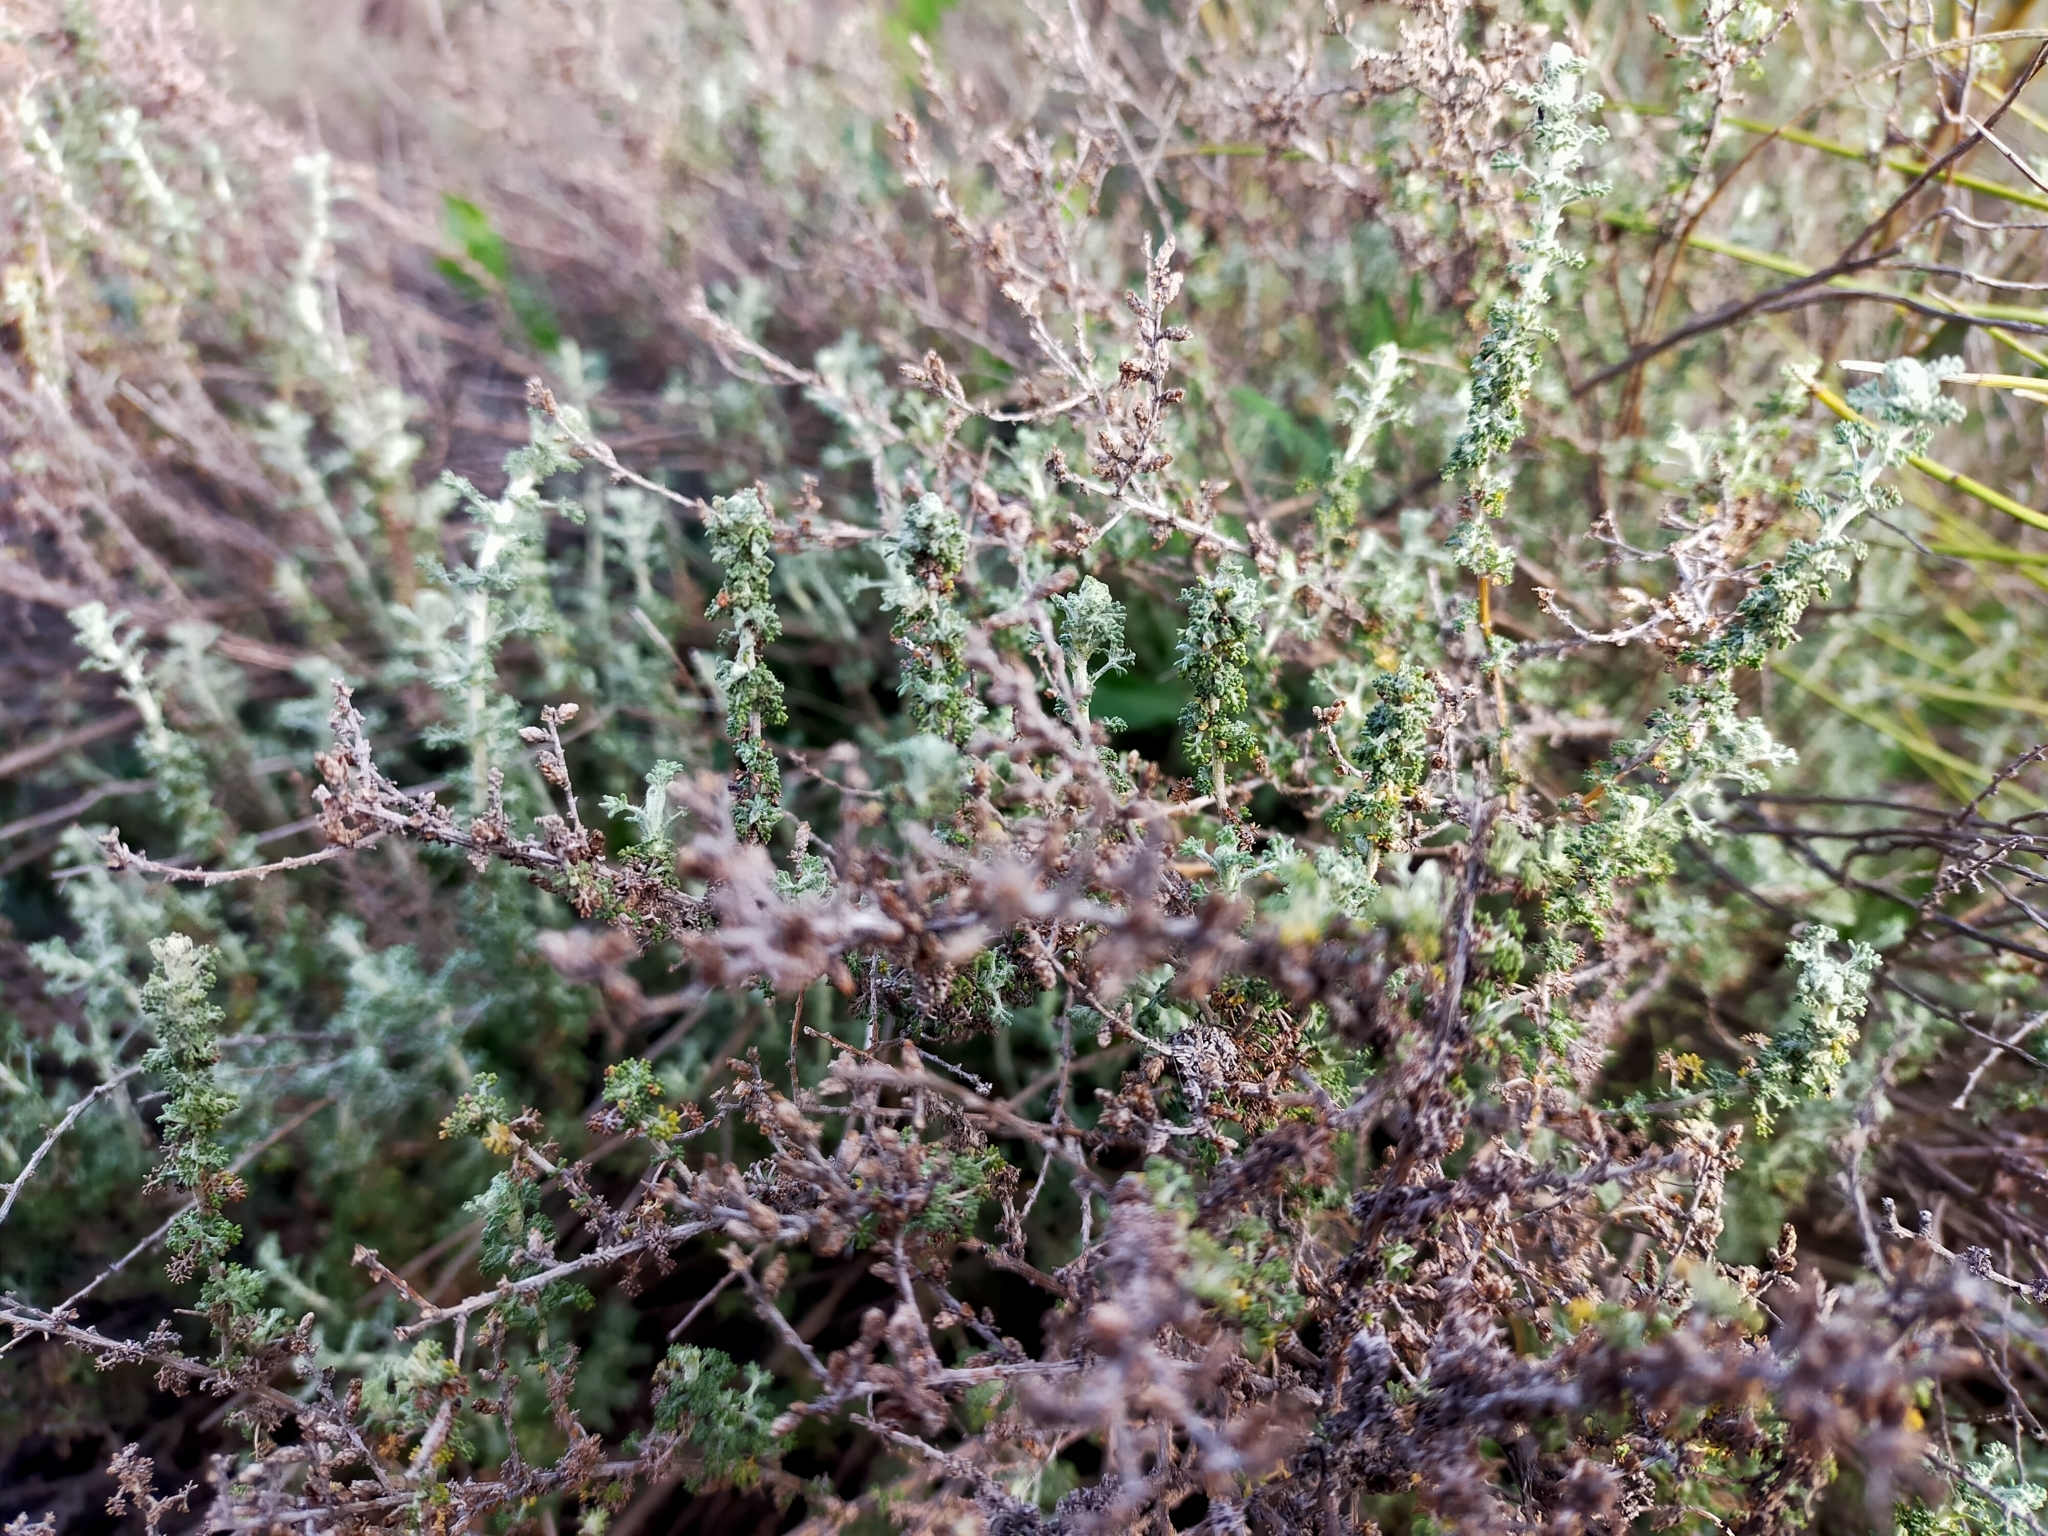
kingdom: Plantae
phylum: Tracheophyta
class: Magnoliopsida
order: Asterales
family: Asteraceae
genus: Artemisia
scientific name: Artemisia herba-alba
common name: White wormwood
